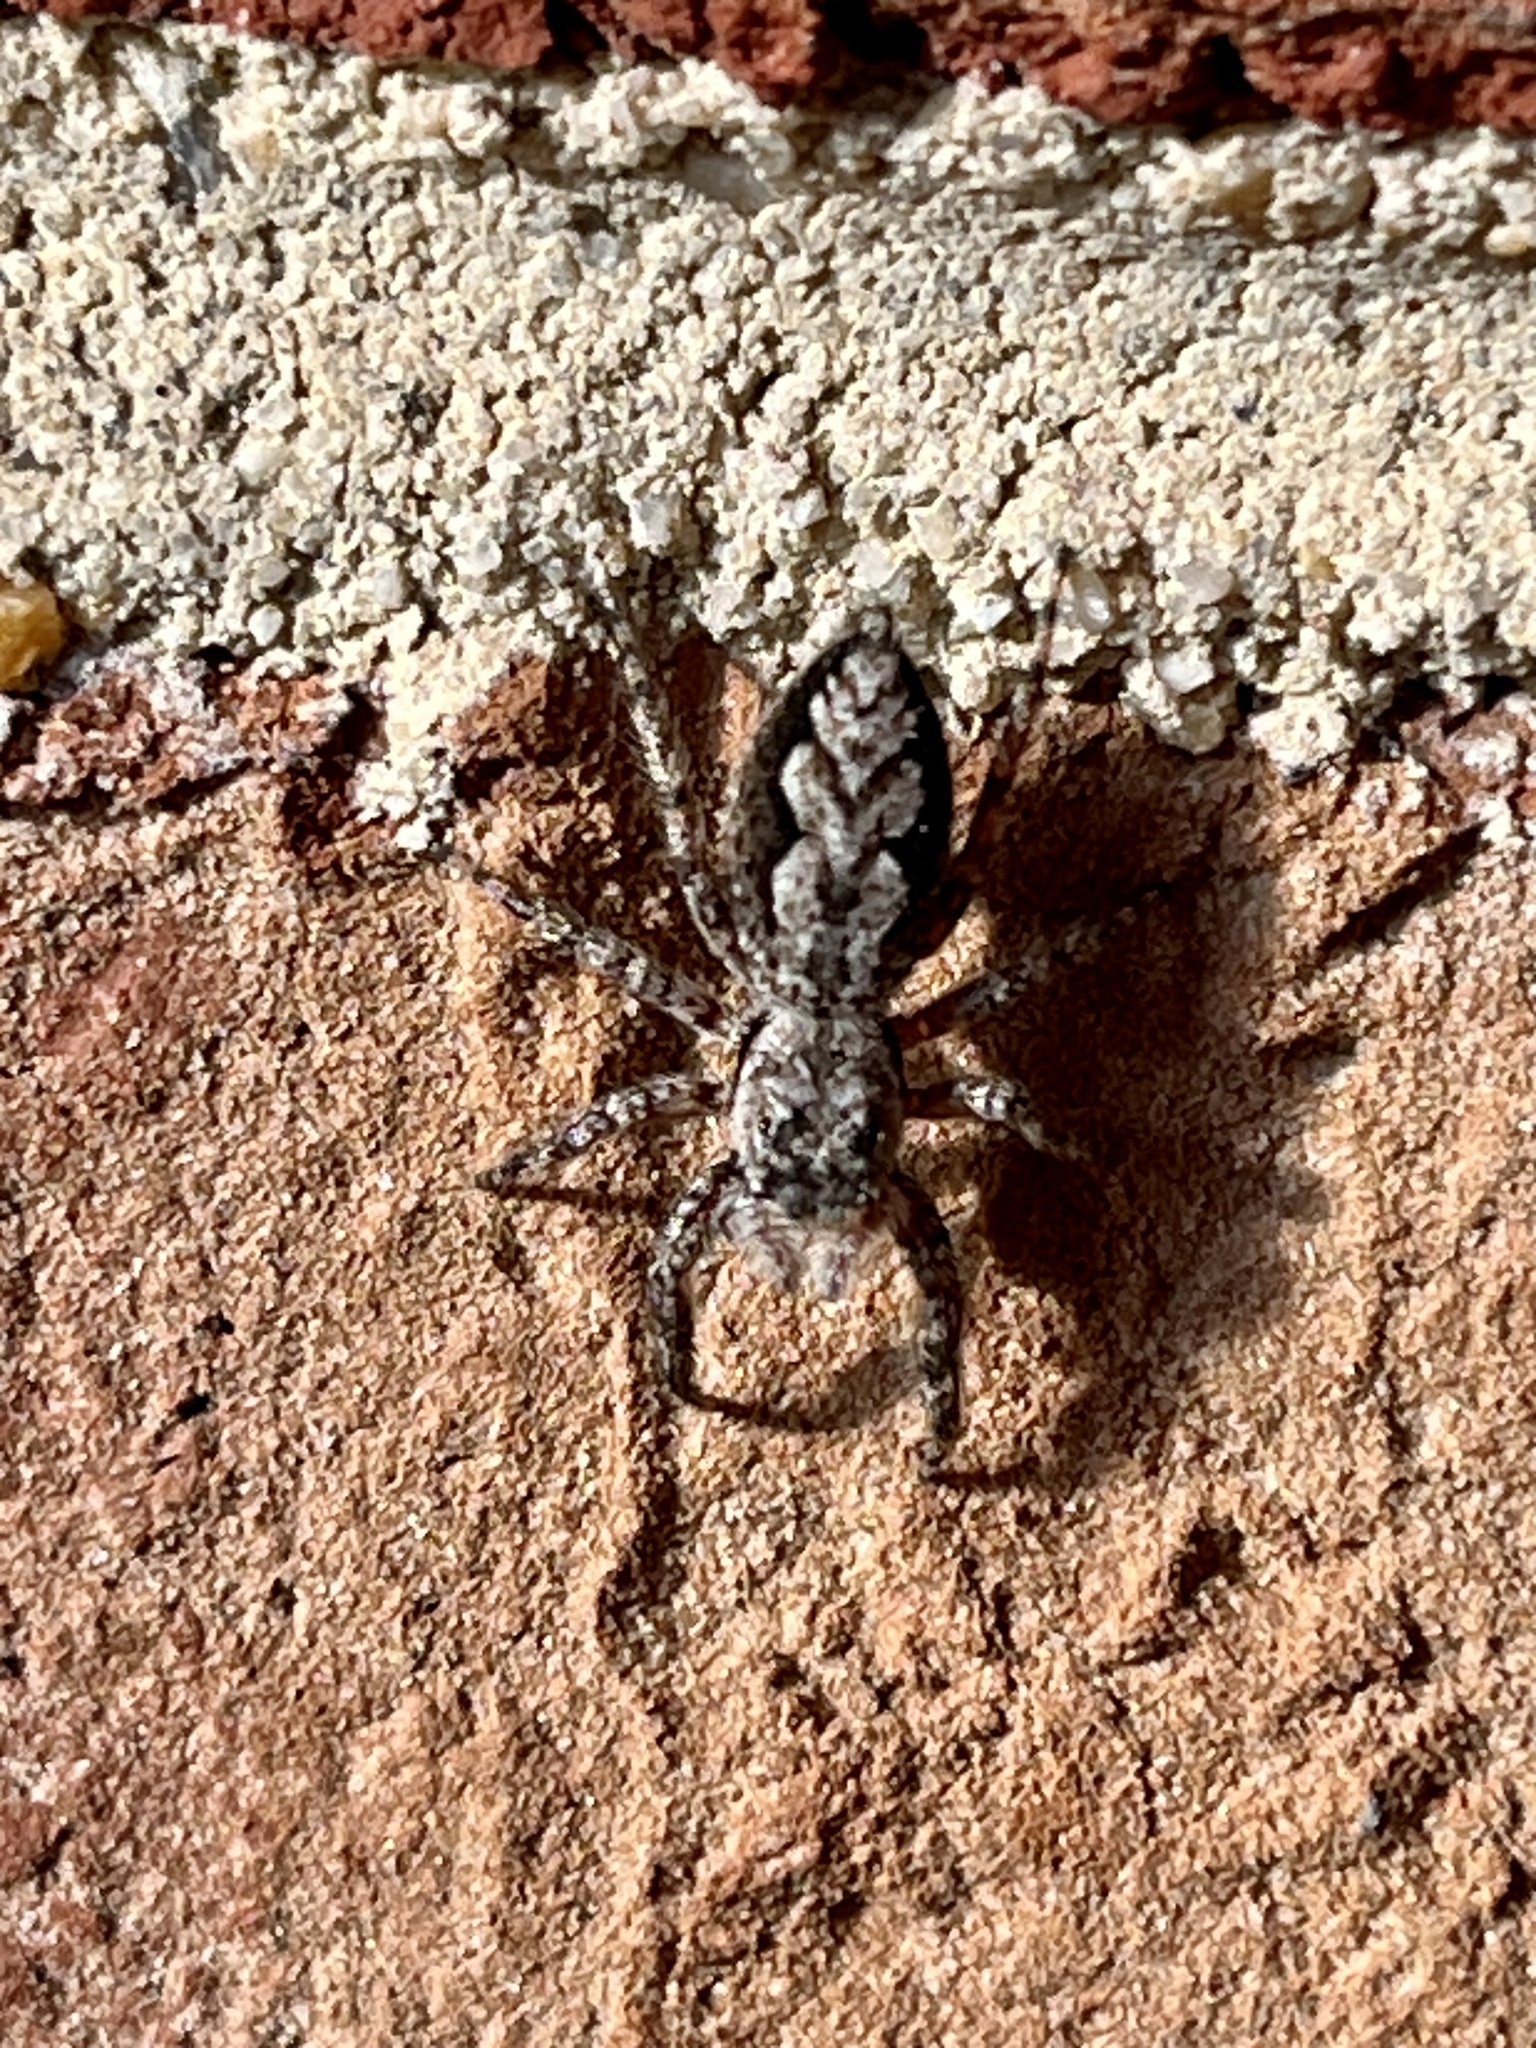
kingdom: Animalia
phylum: Arthropoda
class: Arachnida
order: Araneae
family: Salticidae
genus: Platycryptus
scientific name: Platycryptus undatus
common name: Tan jumping spider
